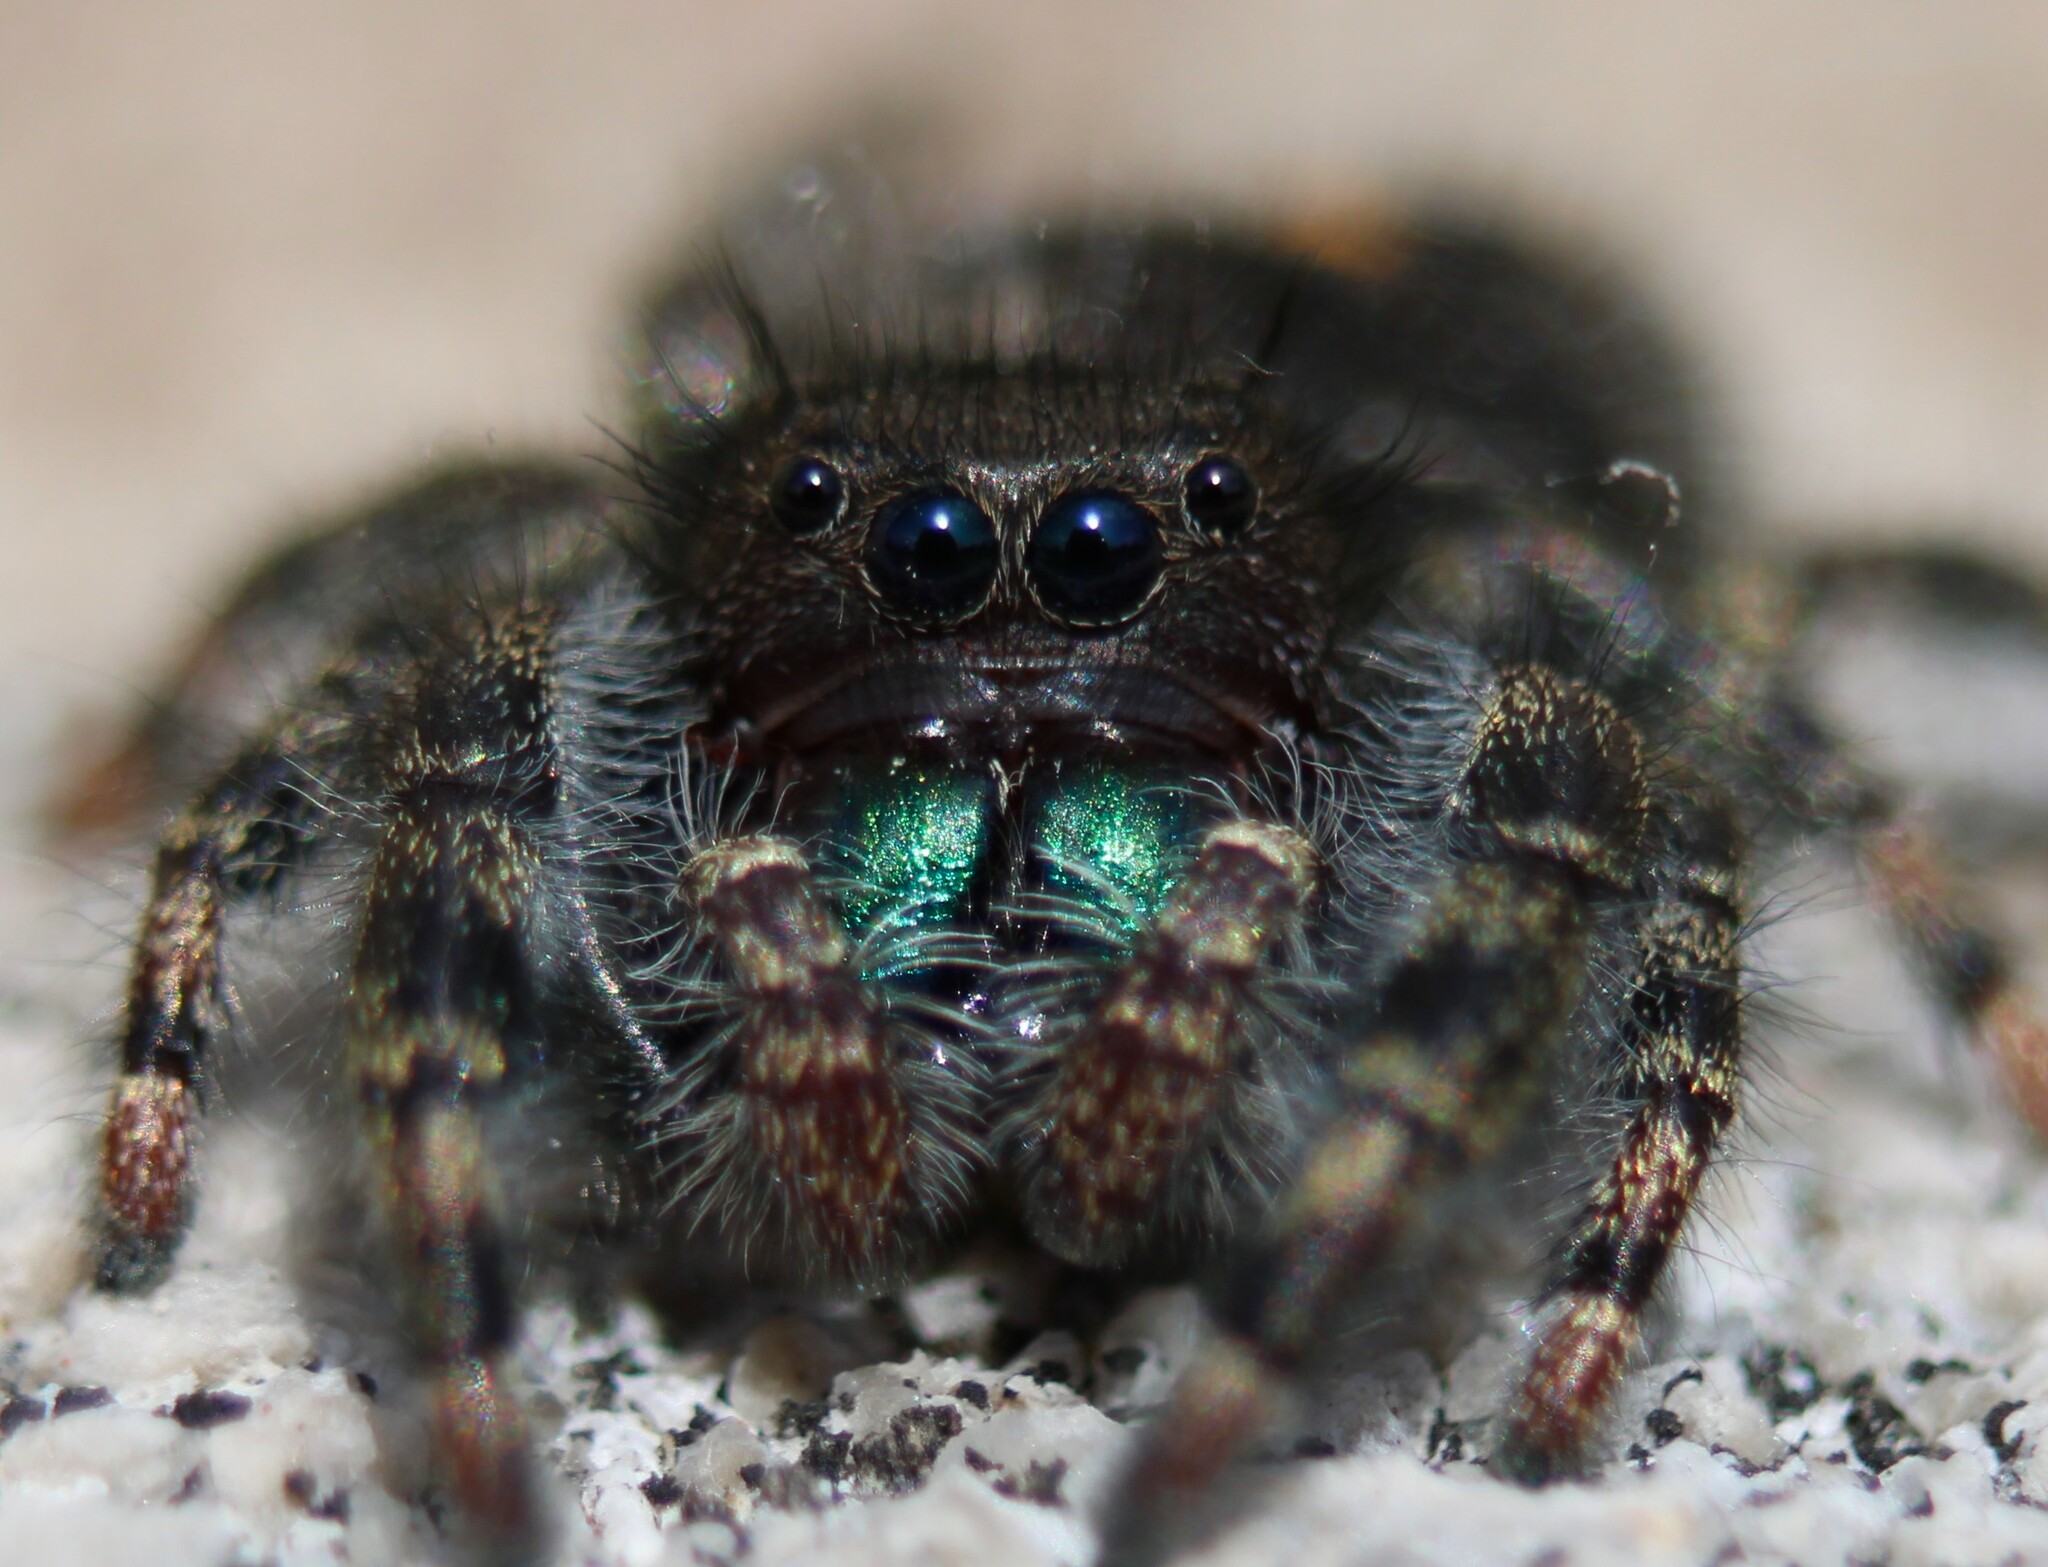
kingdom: Animalia
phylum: Arthropoda
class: Arachnida
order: Araneae
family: Salticidae
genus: Phidippus
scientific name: Phidippus audax
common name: Bold jumper
